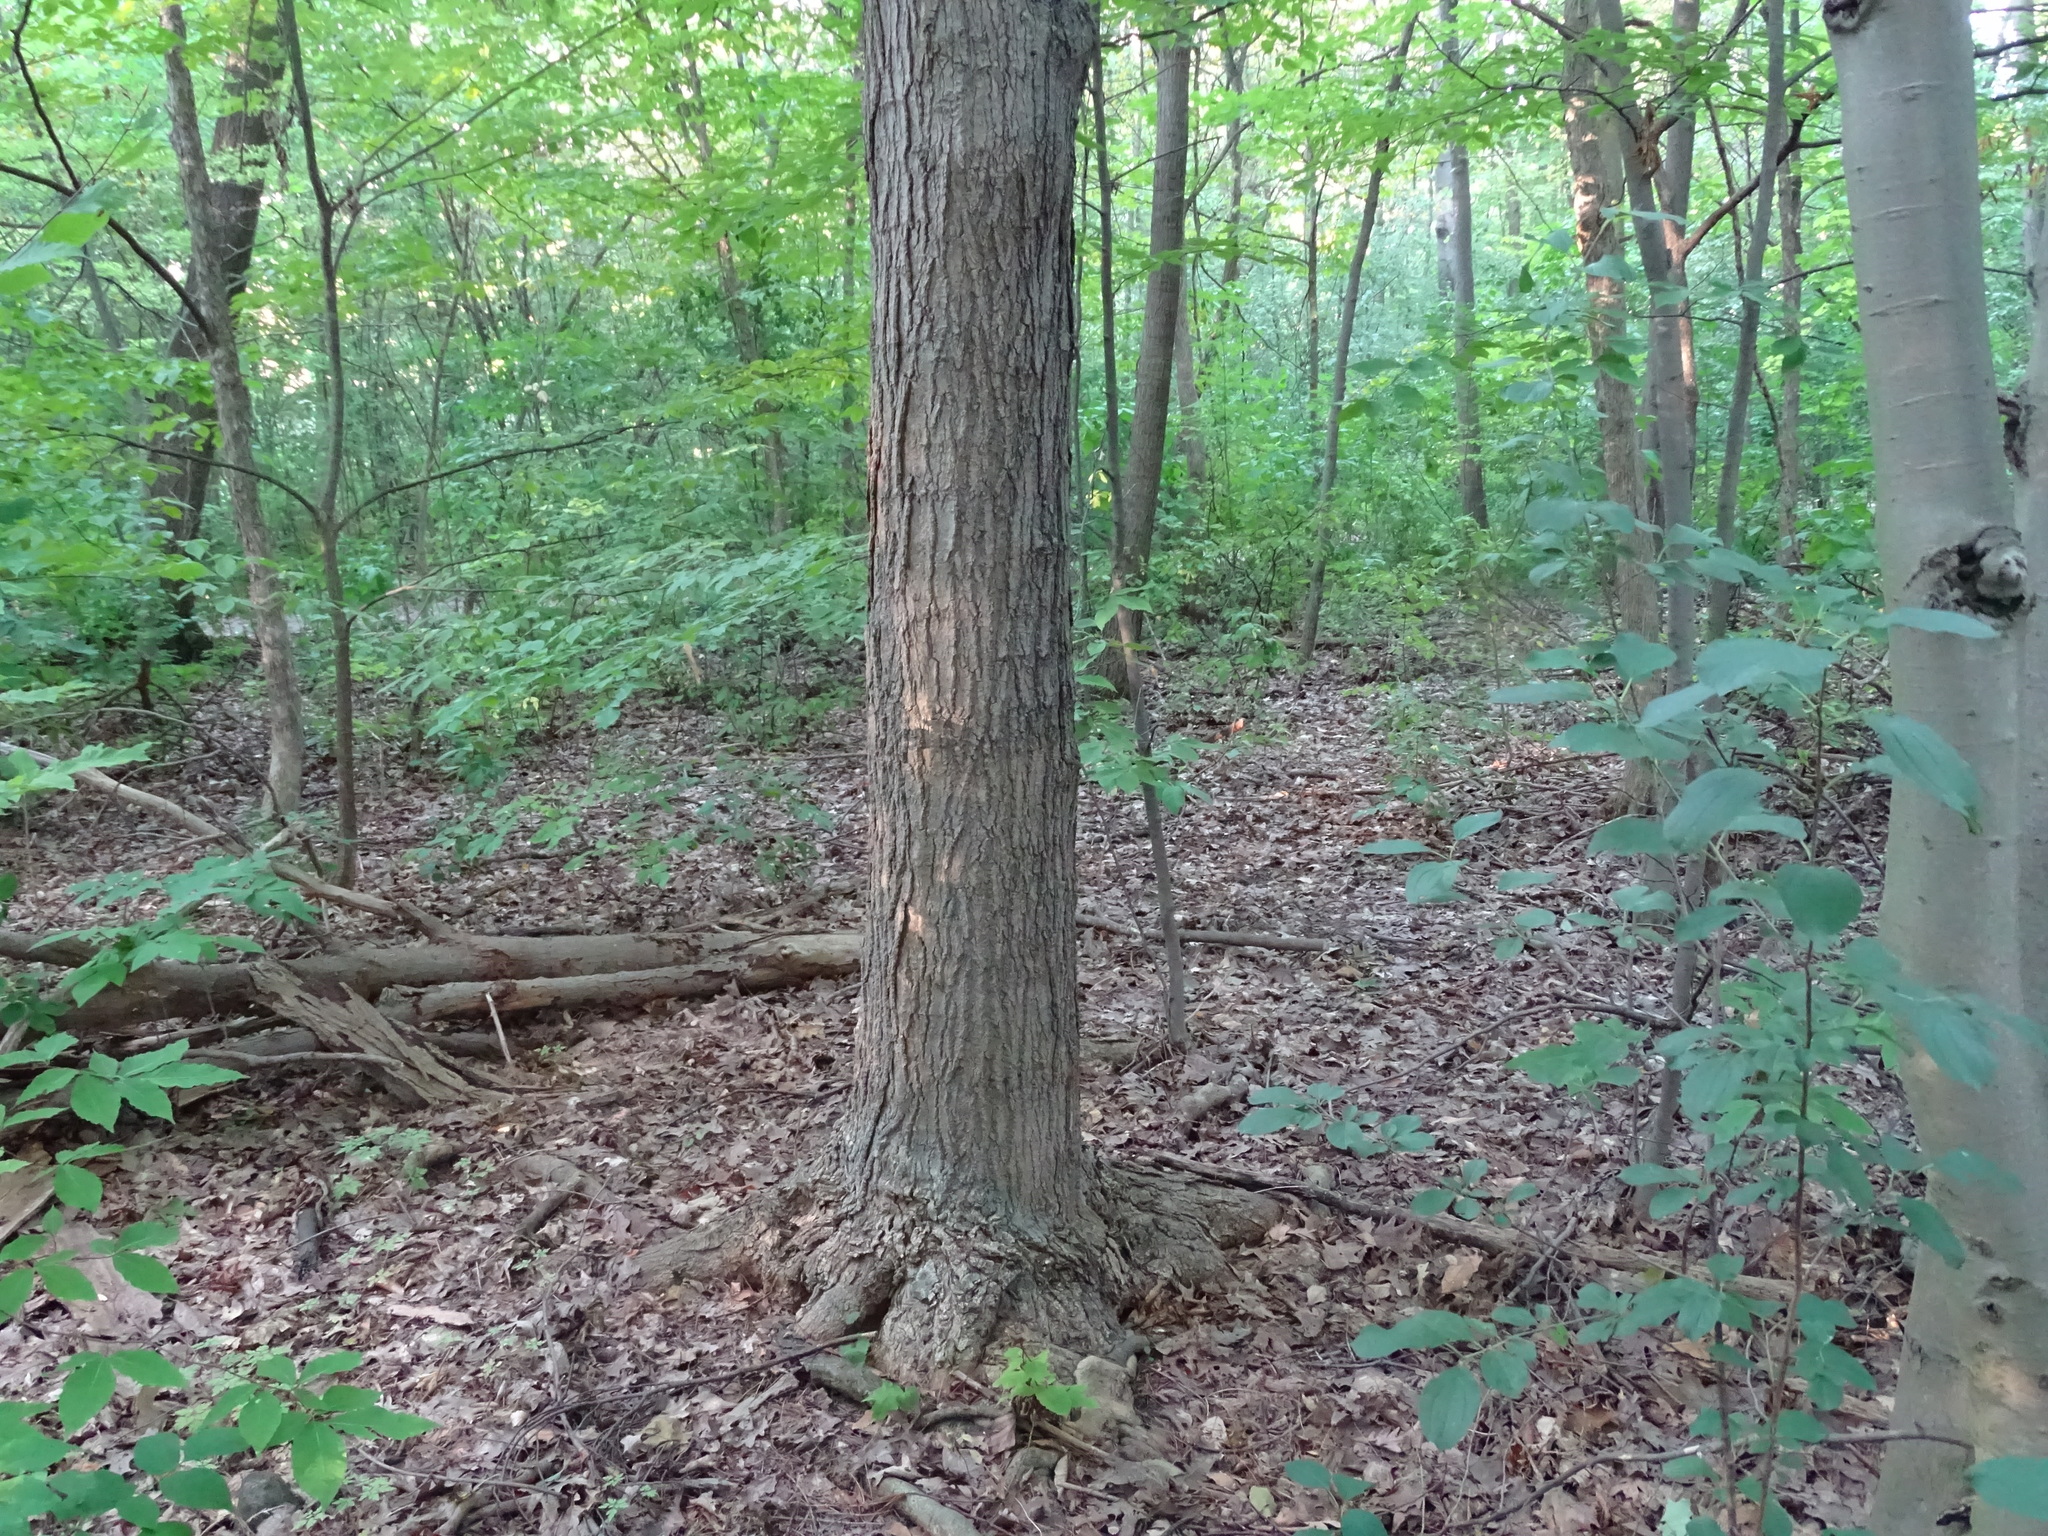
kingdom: Plantae
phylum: Tracheophyta
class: Magnoliopsida
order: Sapindales
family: Sapindaceae
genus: Acer
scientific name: Acer saccharum
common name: Sugar maple
